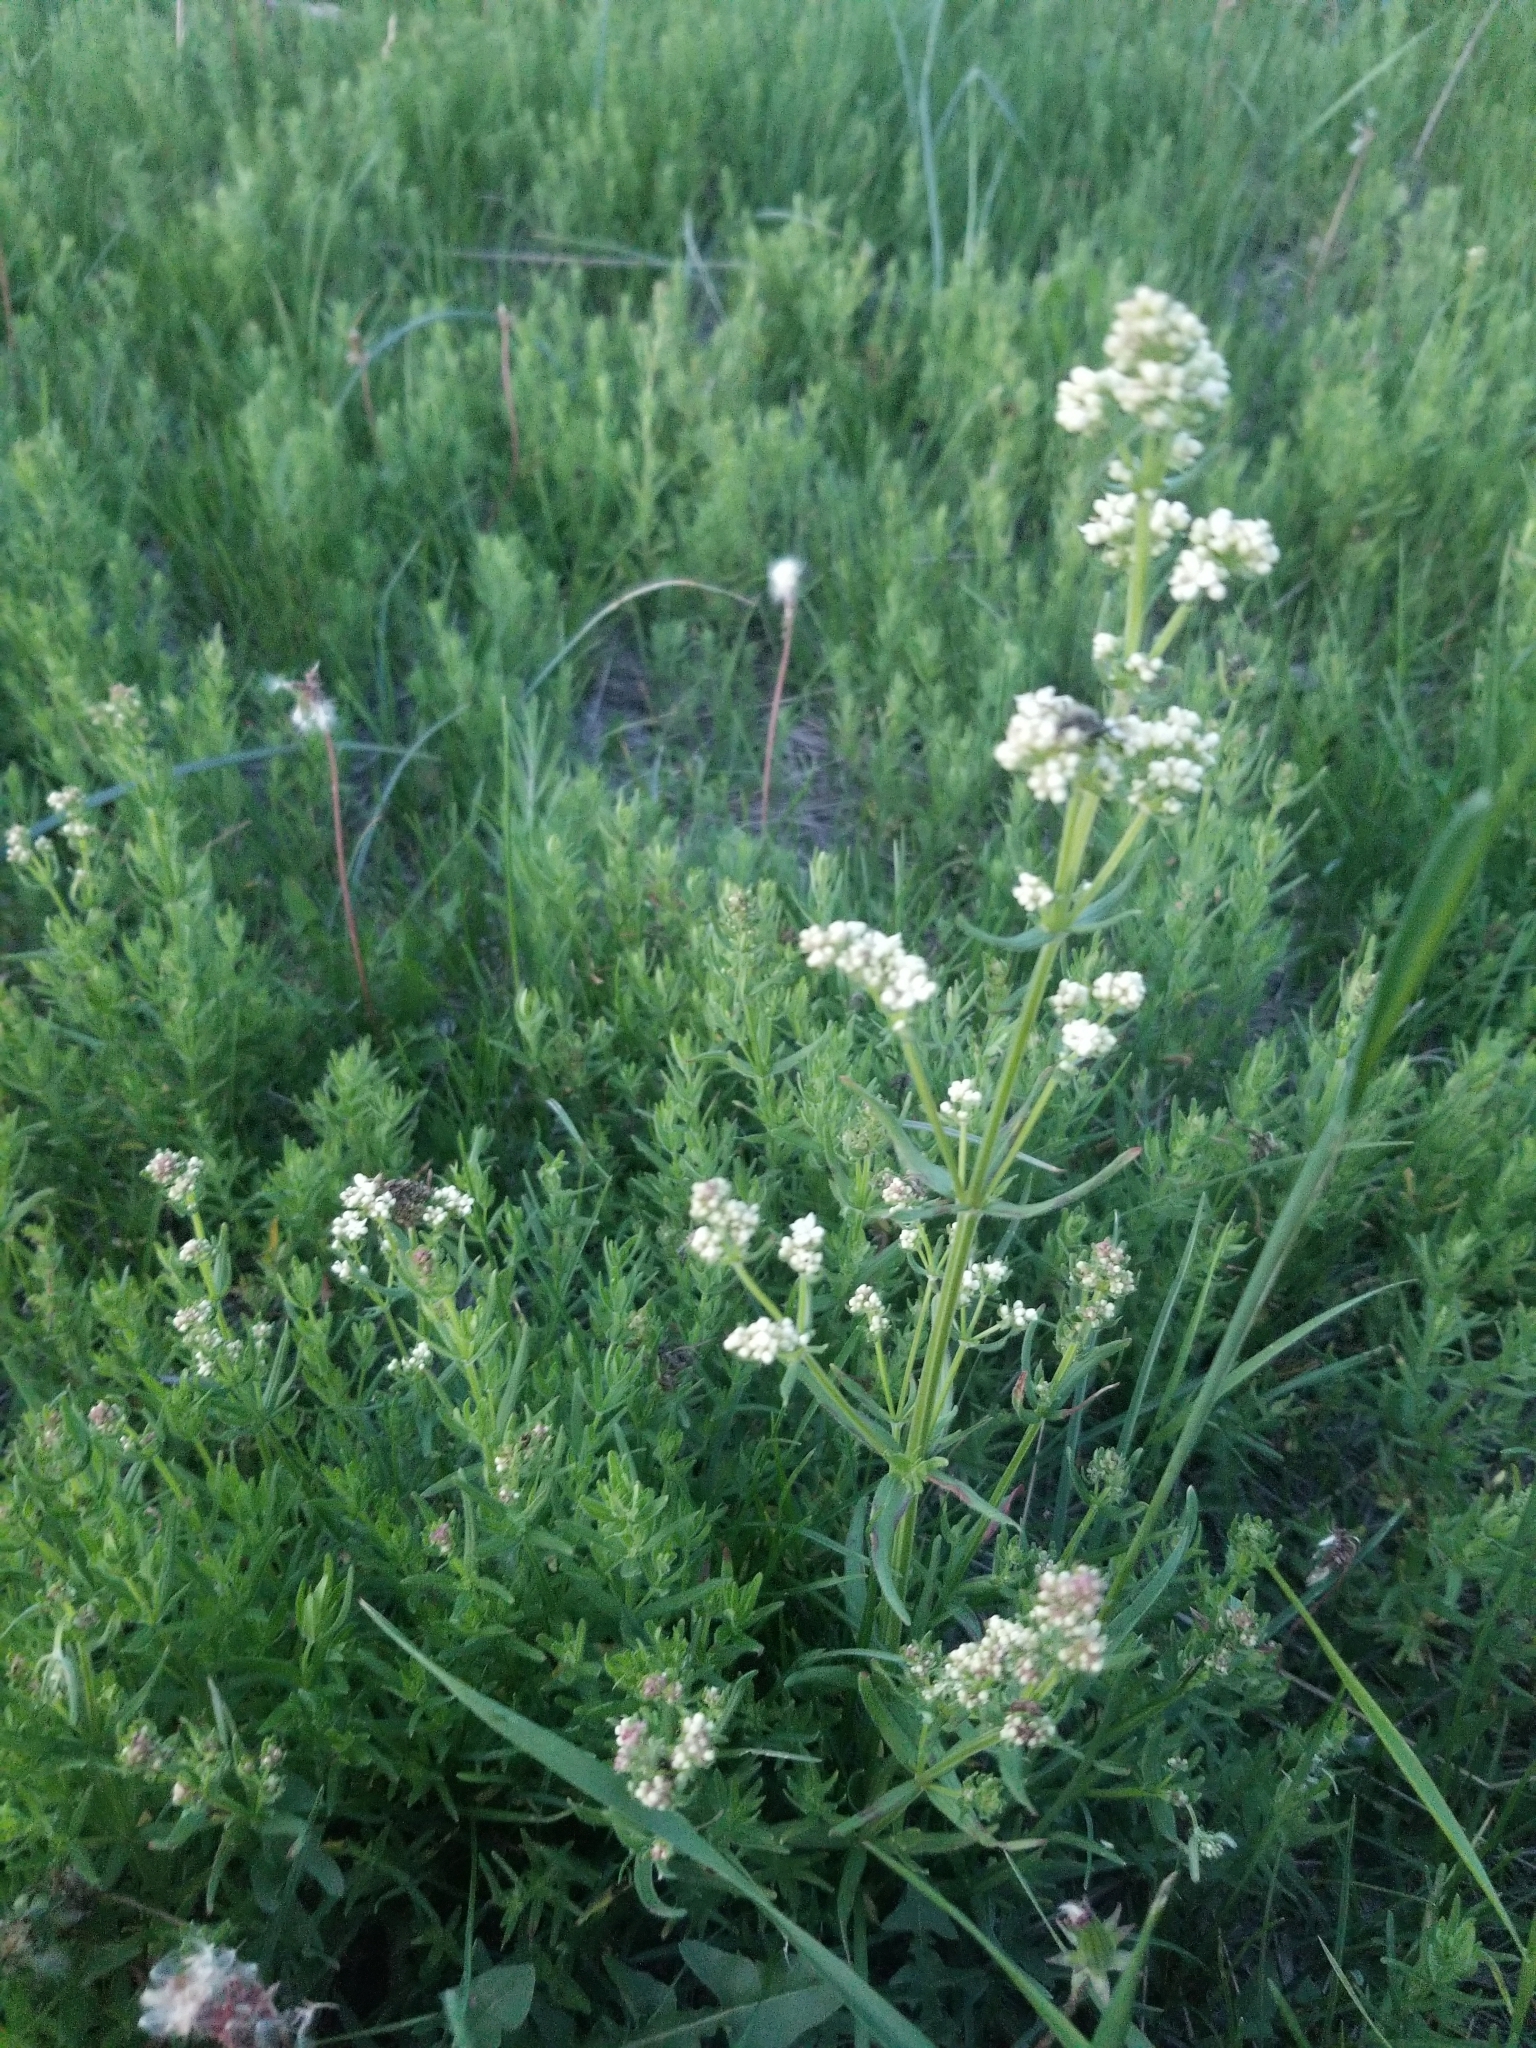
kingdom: Plantae
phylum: Tracheophyta
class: Magnoliopsida
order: Gentianales
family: Rubiaceae
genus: Galium
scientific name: Galium boreale
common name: Northern bedstraw
